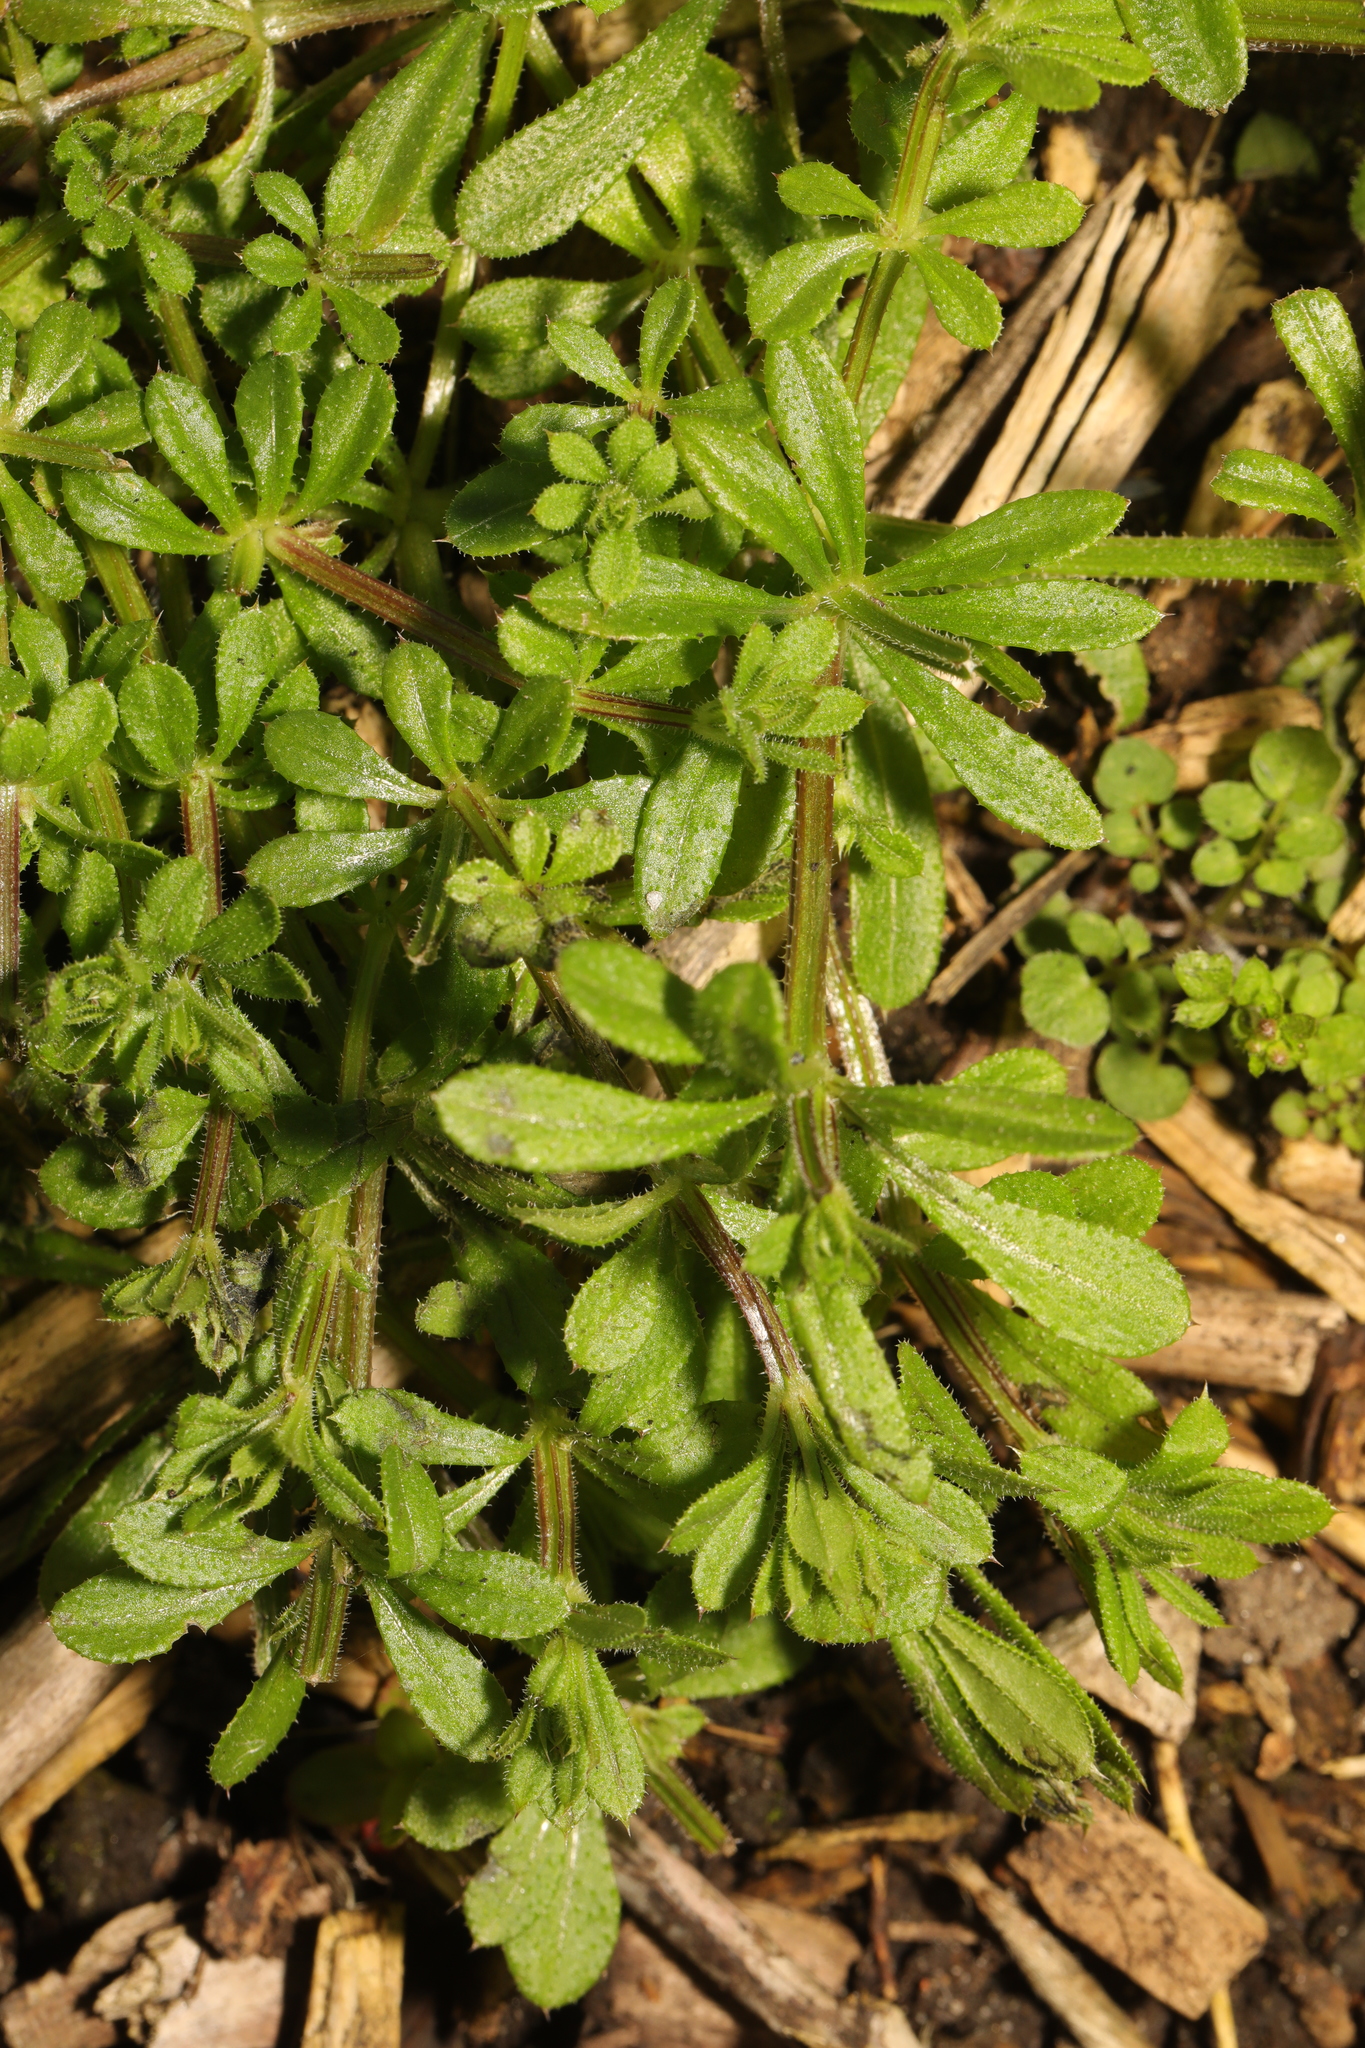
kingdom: Plantae
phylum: Tracheophyta
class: Magnoliopsida
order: Gentianales
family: Rubiaceae
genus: Galium
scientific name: Galium aparine
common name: Cleavers
